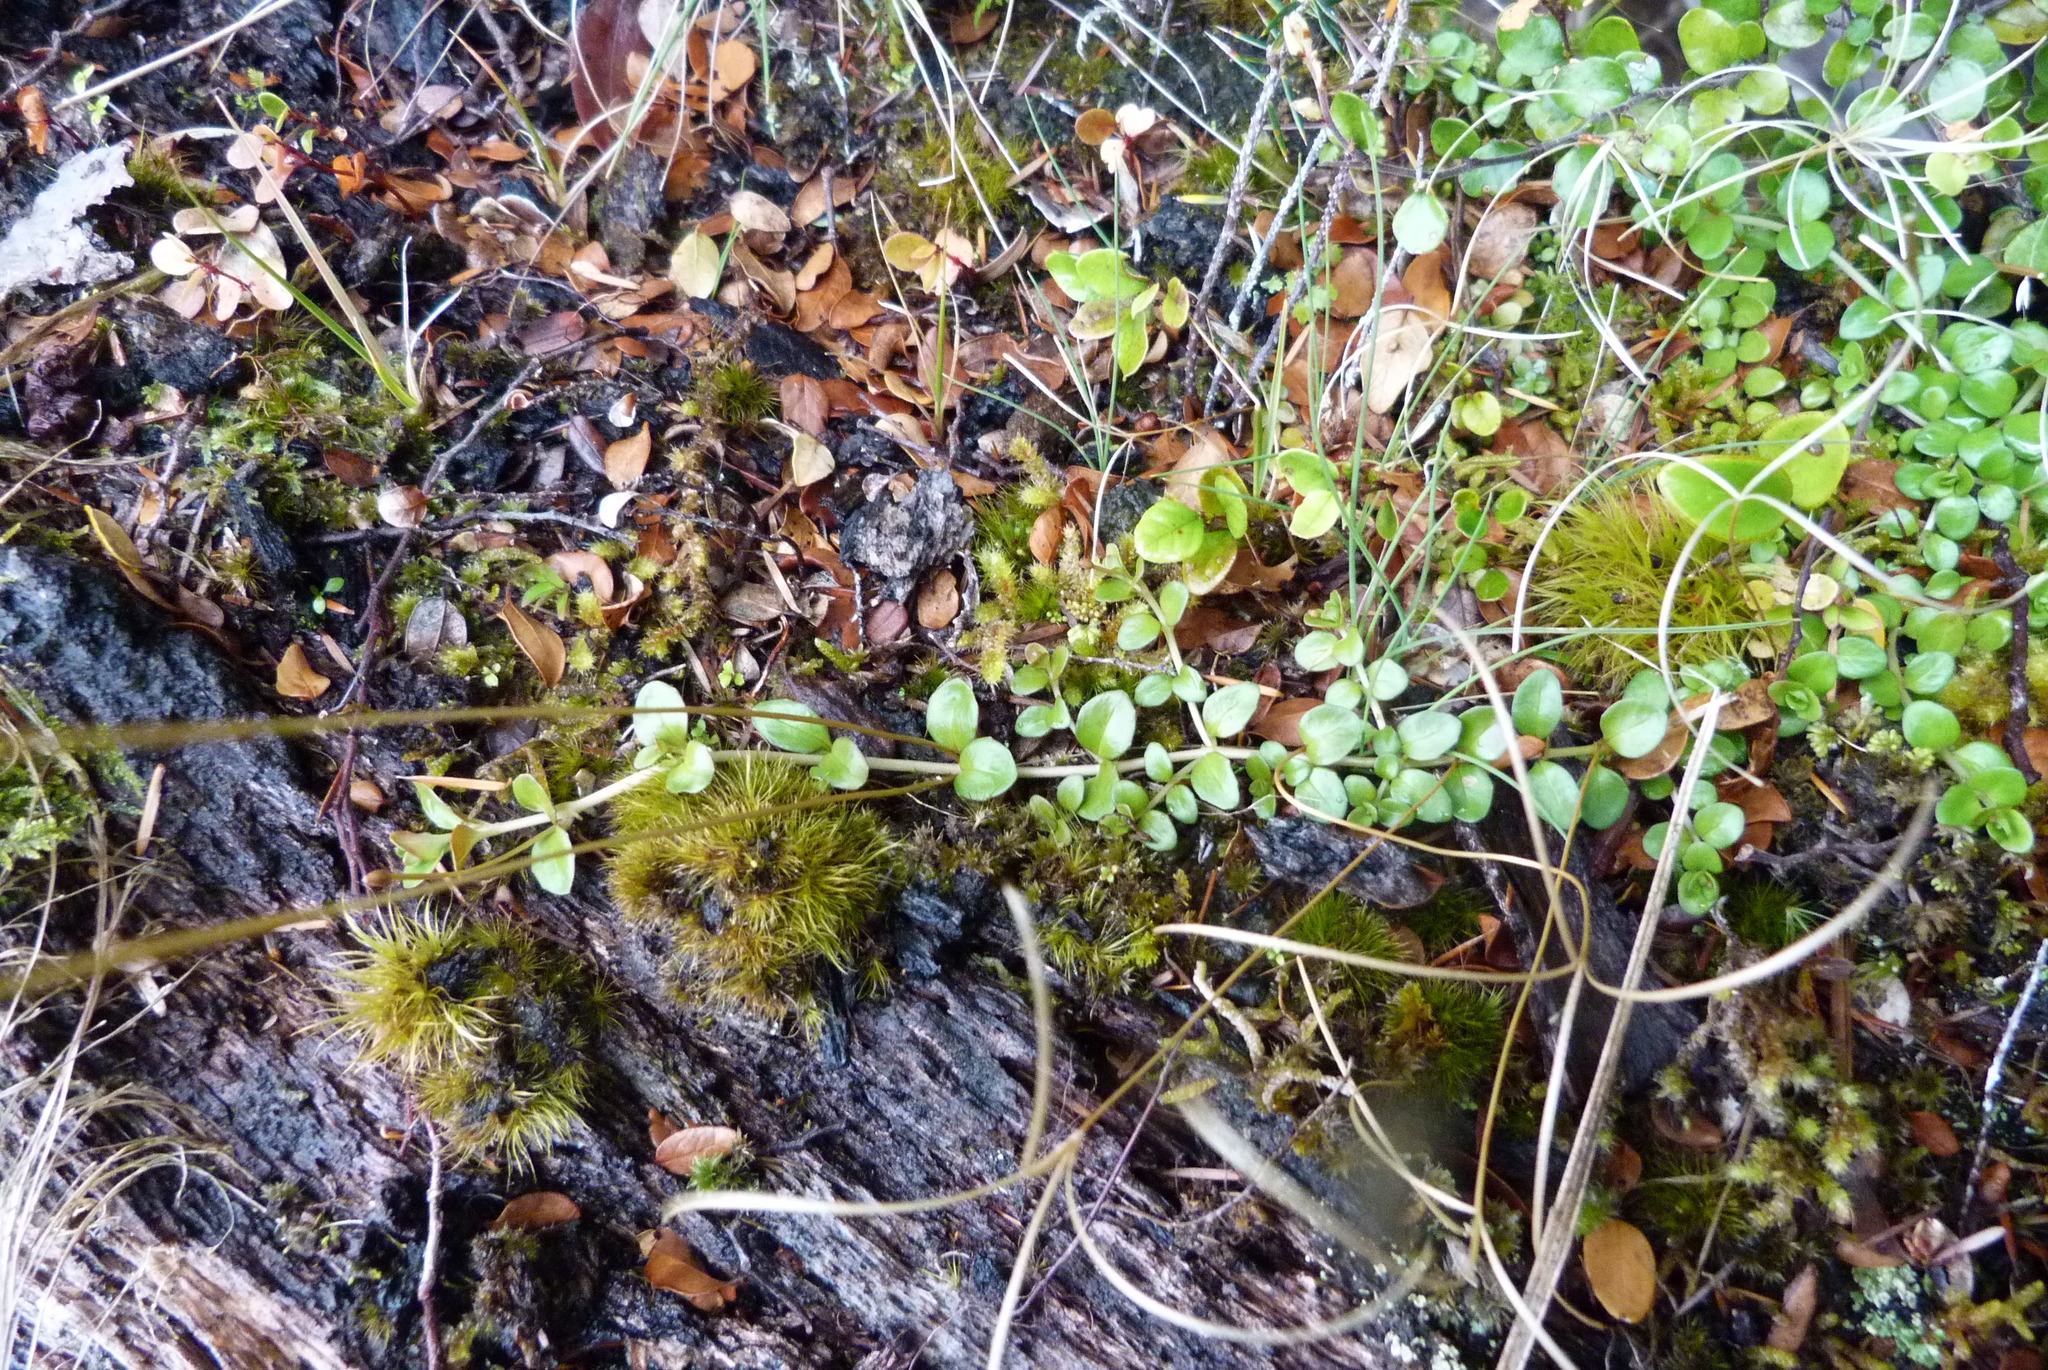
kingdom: Plantae
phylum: Tracheophyta
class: Magnoliopsida
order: Myrtales
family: Onagraceae
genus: Epilobium
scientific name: Epilobium brunnescens
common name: New zealand willowherb
